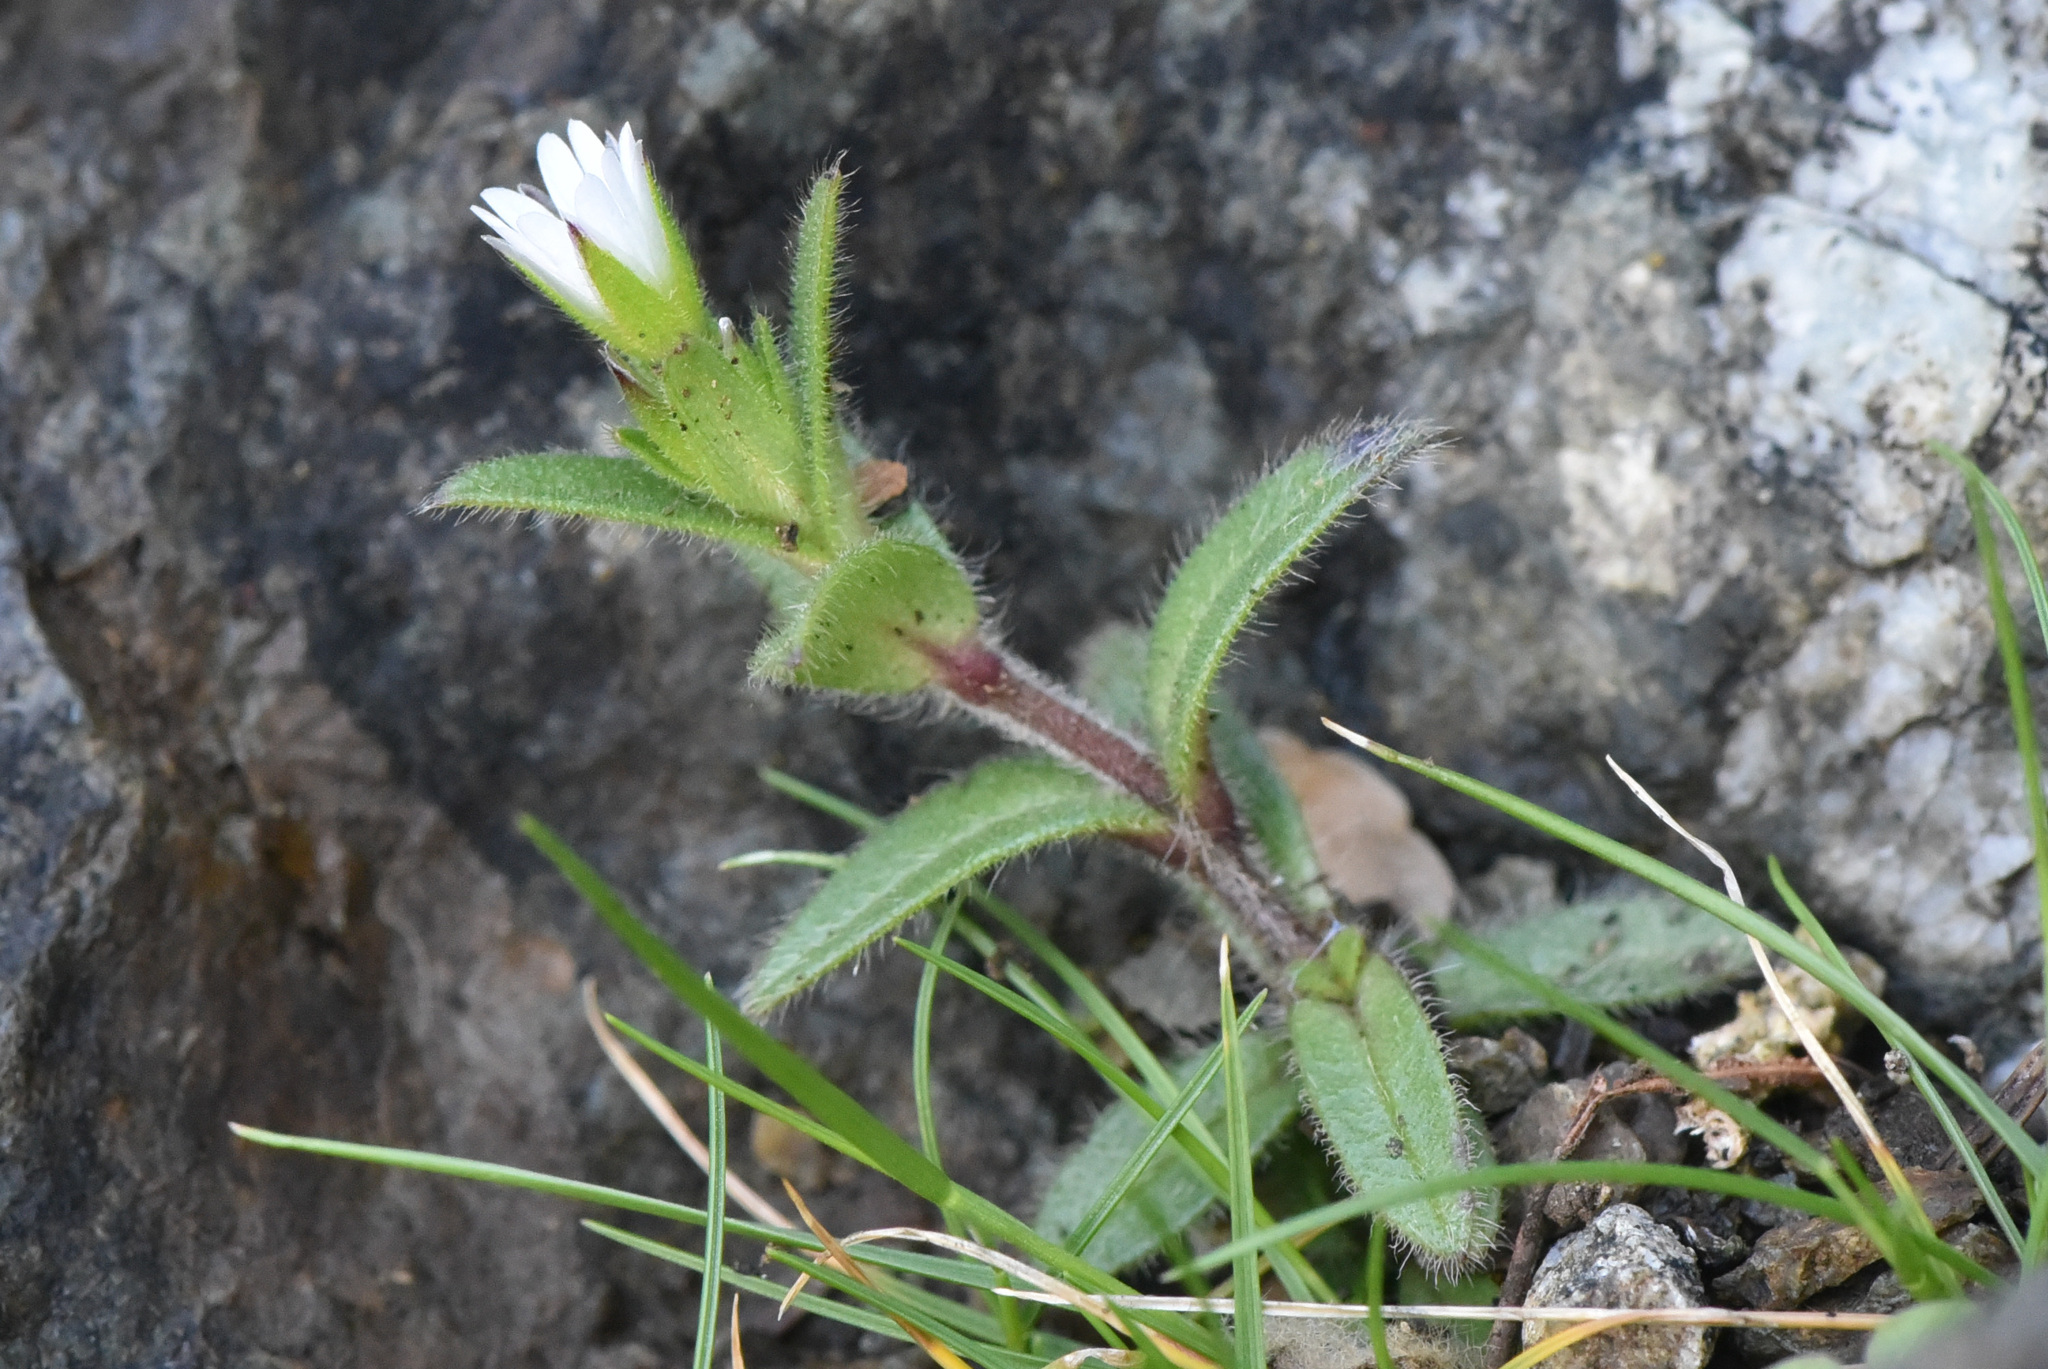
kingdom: Plantae
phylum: Tracheophyta
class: Magnoliopsida
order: Caryophyllales
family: Caryophyllaceae
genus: Cerastium
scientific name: Cerastium fontanum
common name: Common mouse-ear
